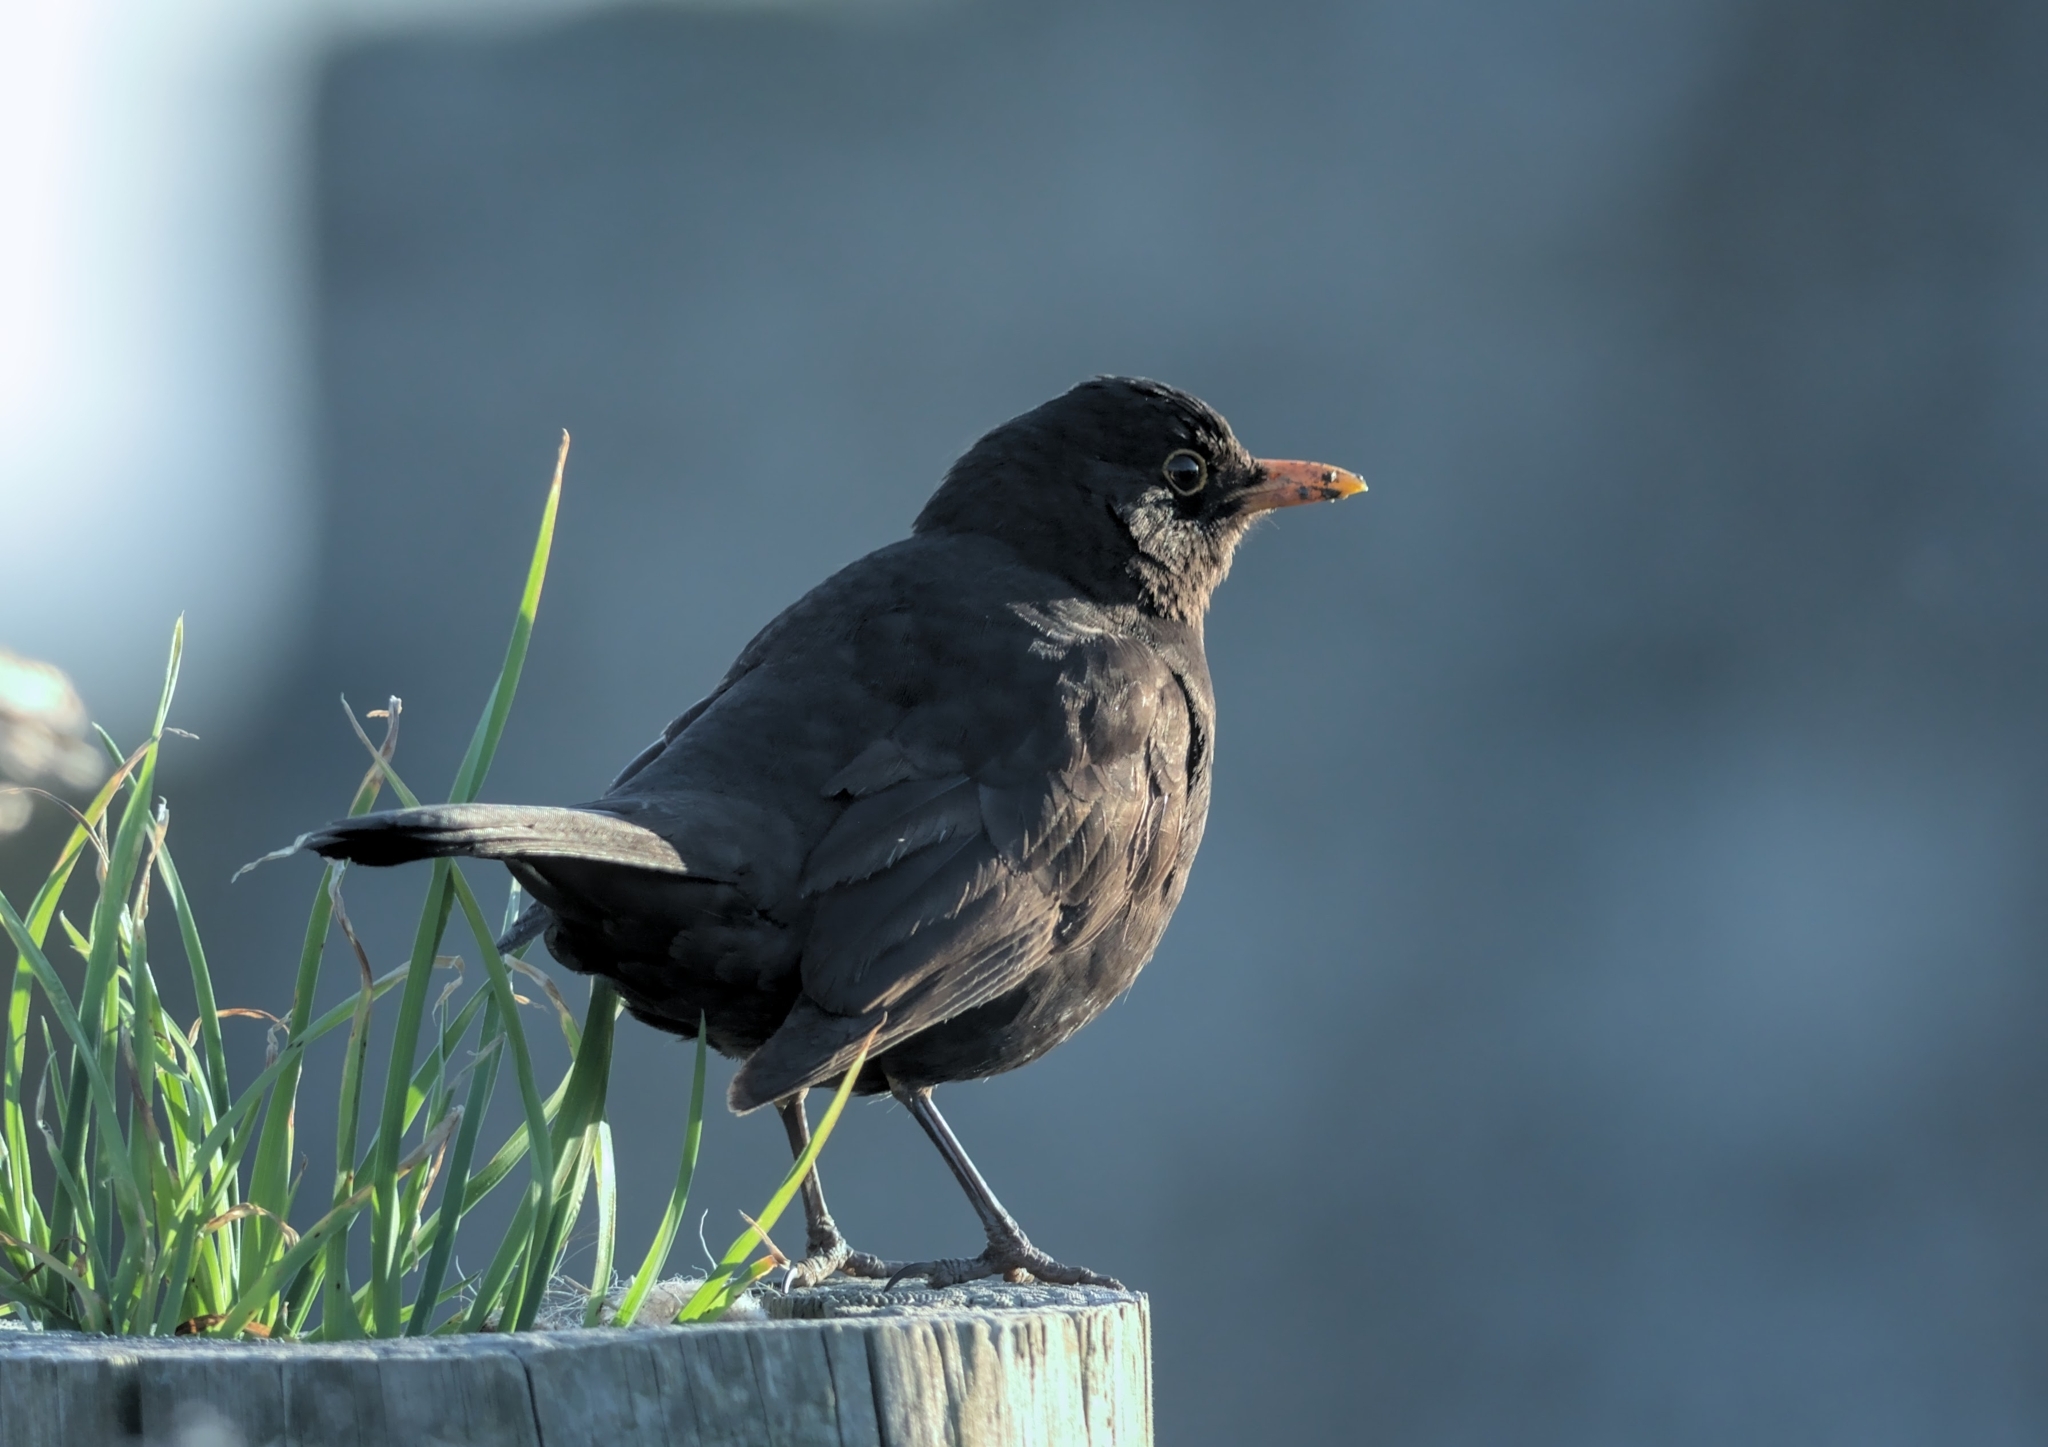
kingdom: Animalia
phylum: Chordata
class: Aves
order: Passeriformes
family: Turdidae
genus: Turdus
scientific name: Turdus merula
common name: Common blackbird
